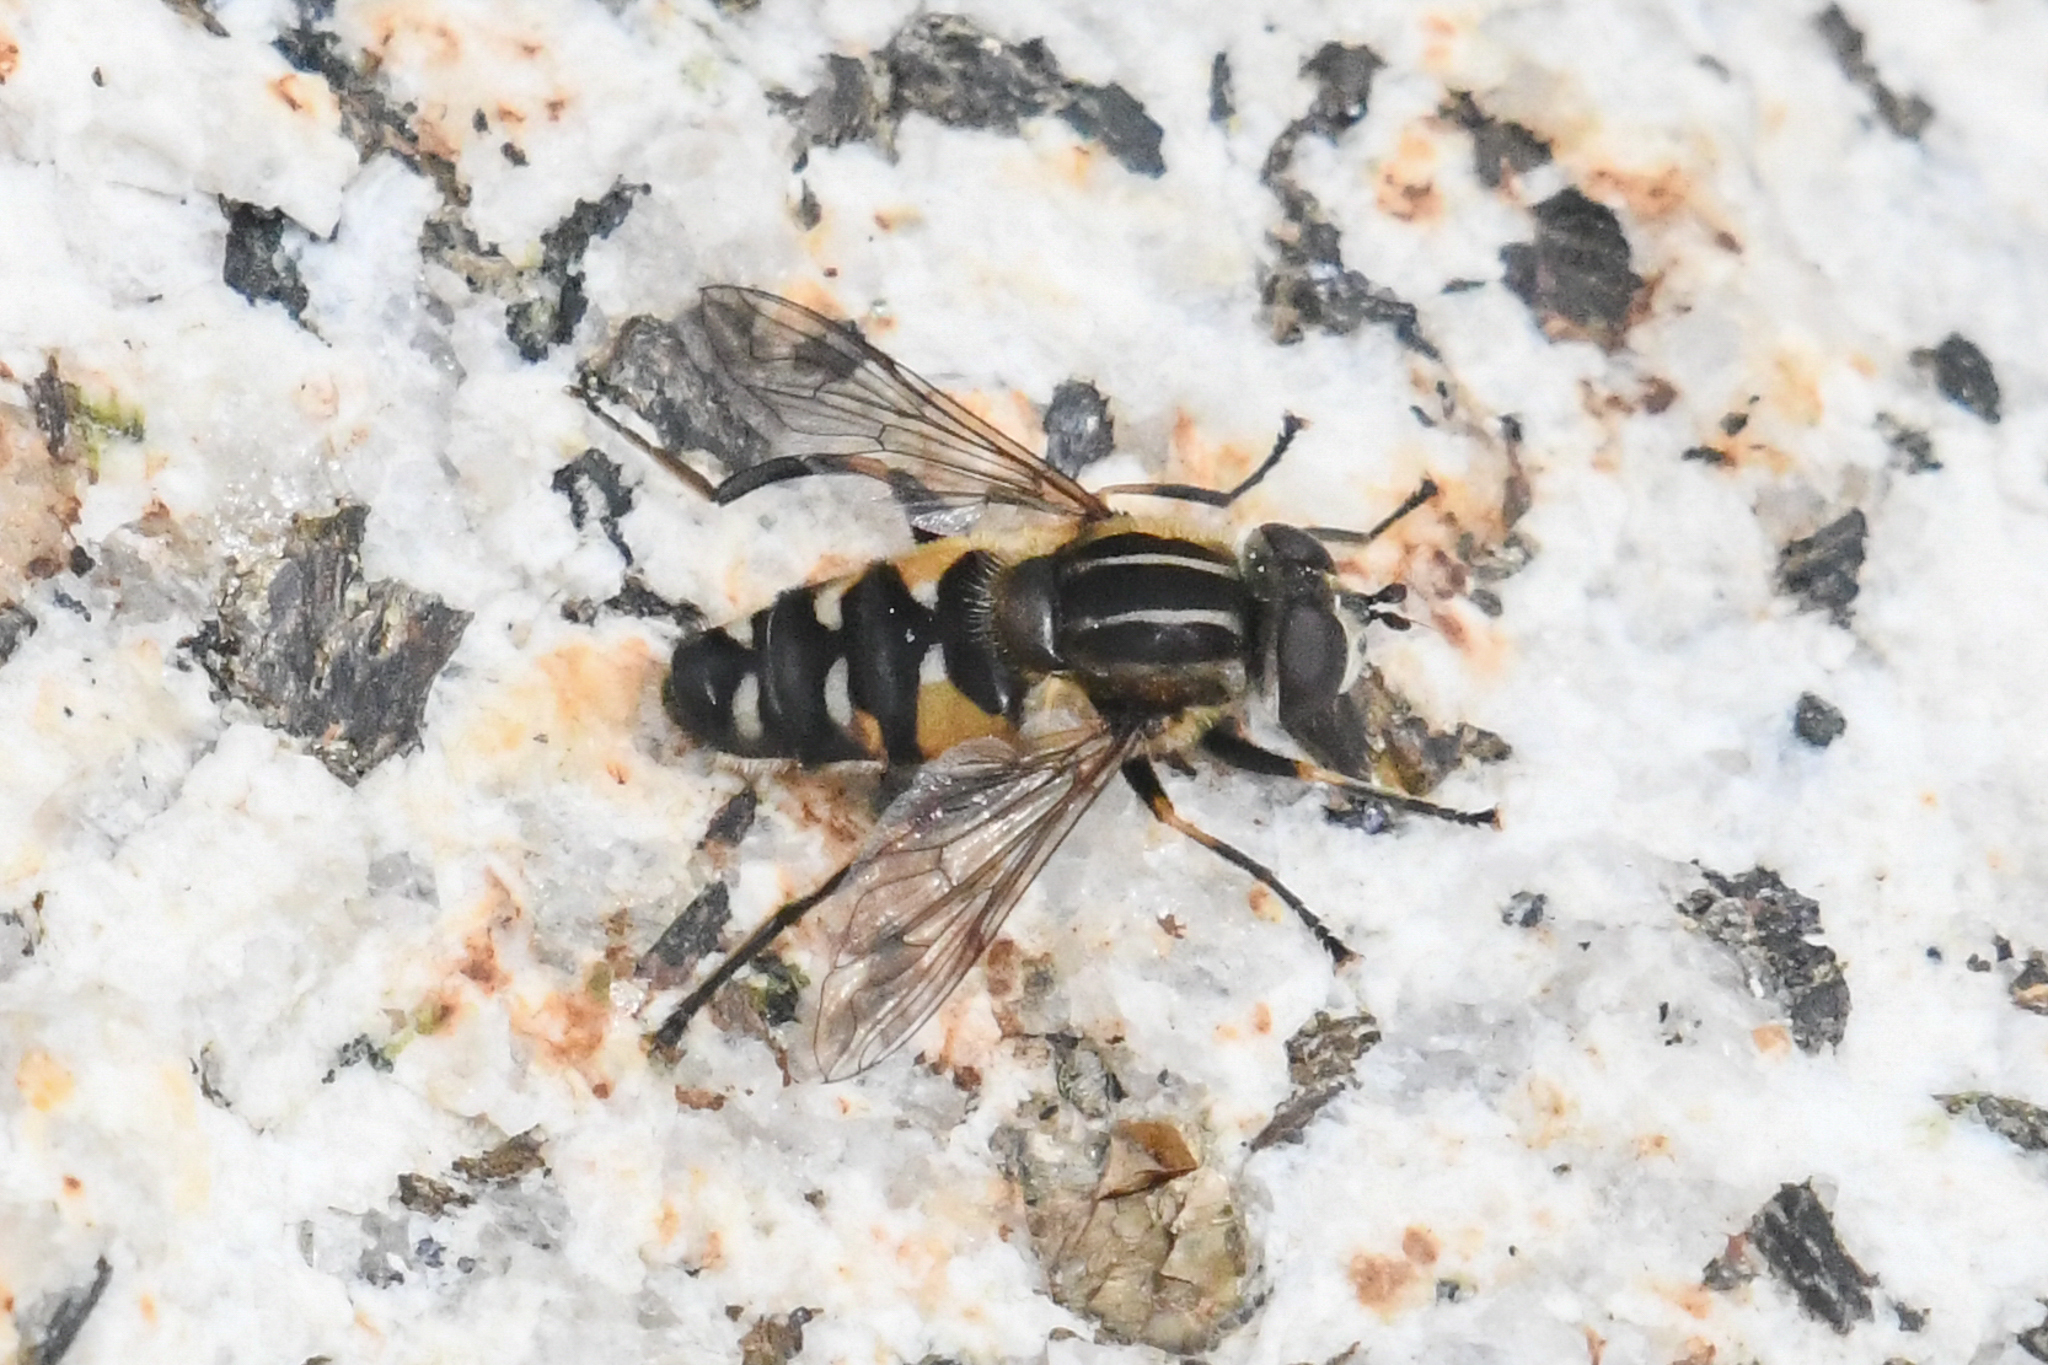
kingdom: Animalia
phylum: Arthropoda
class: Insecta
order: Diptera
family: Syrphidae
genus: Helophilus
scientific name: Helophilus groenlandicus
